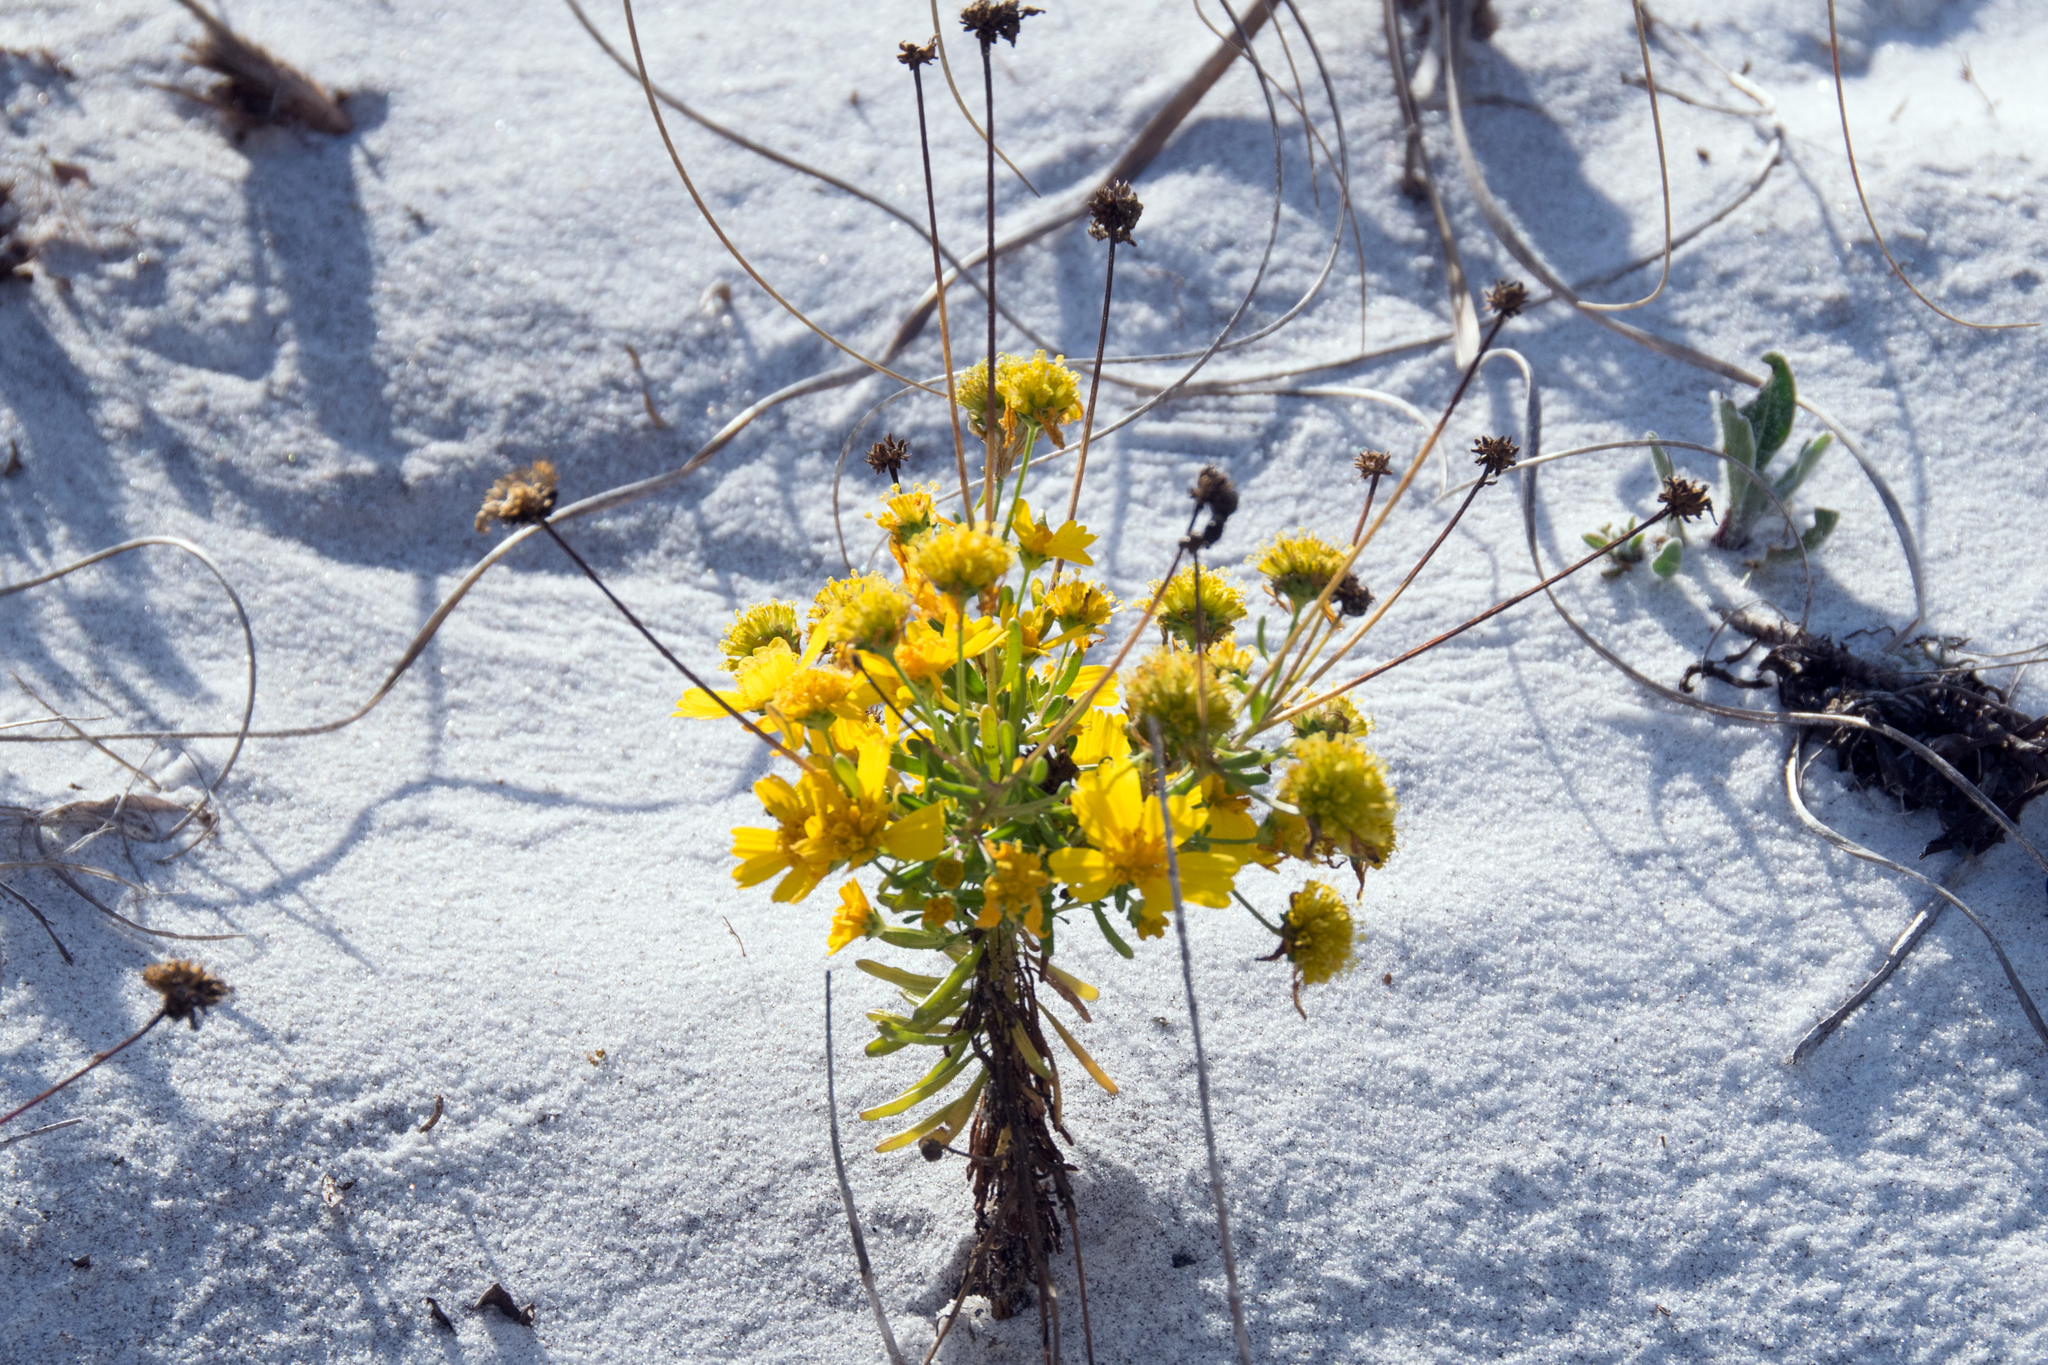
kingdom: Plantae
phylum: Tracheophyta
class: Magnoliopsida
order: Asterales
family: Asteraceae
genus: Helenium
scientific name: Helenium amarum
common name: Bitter sneezeweed
